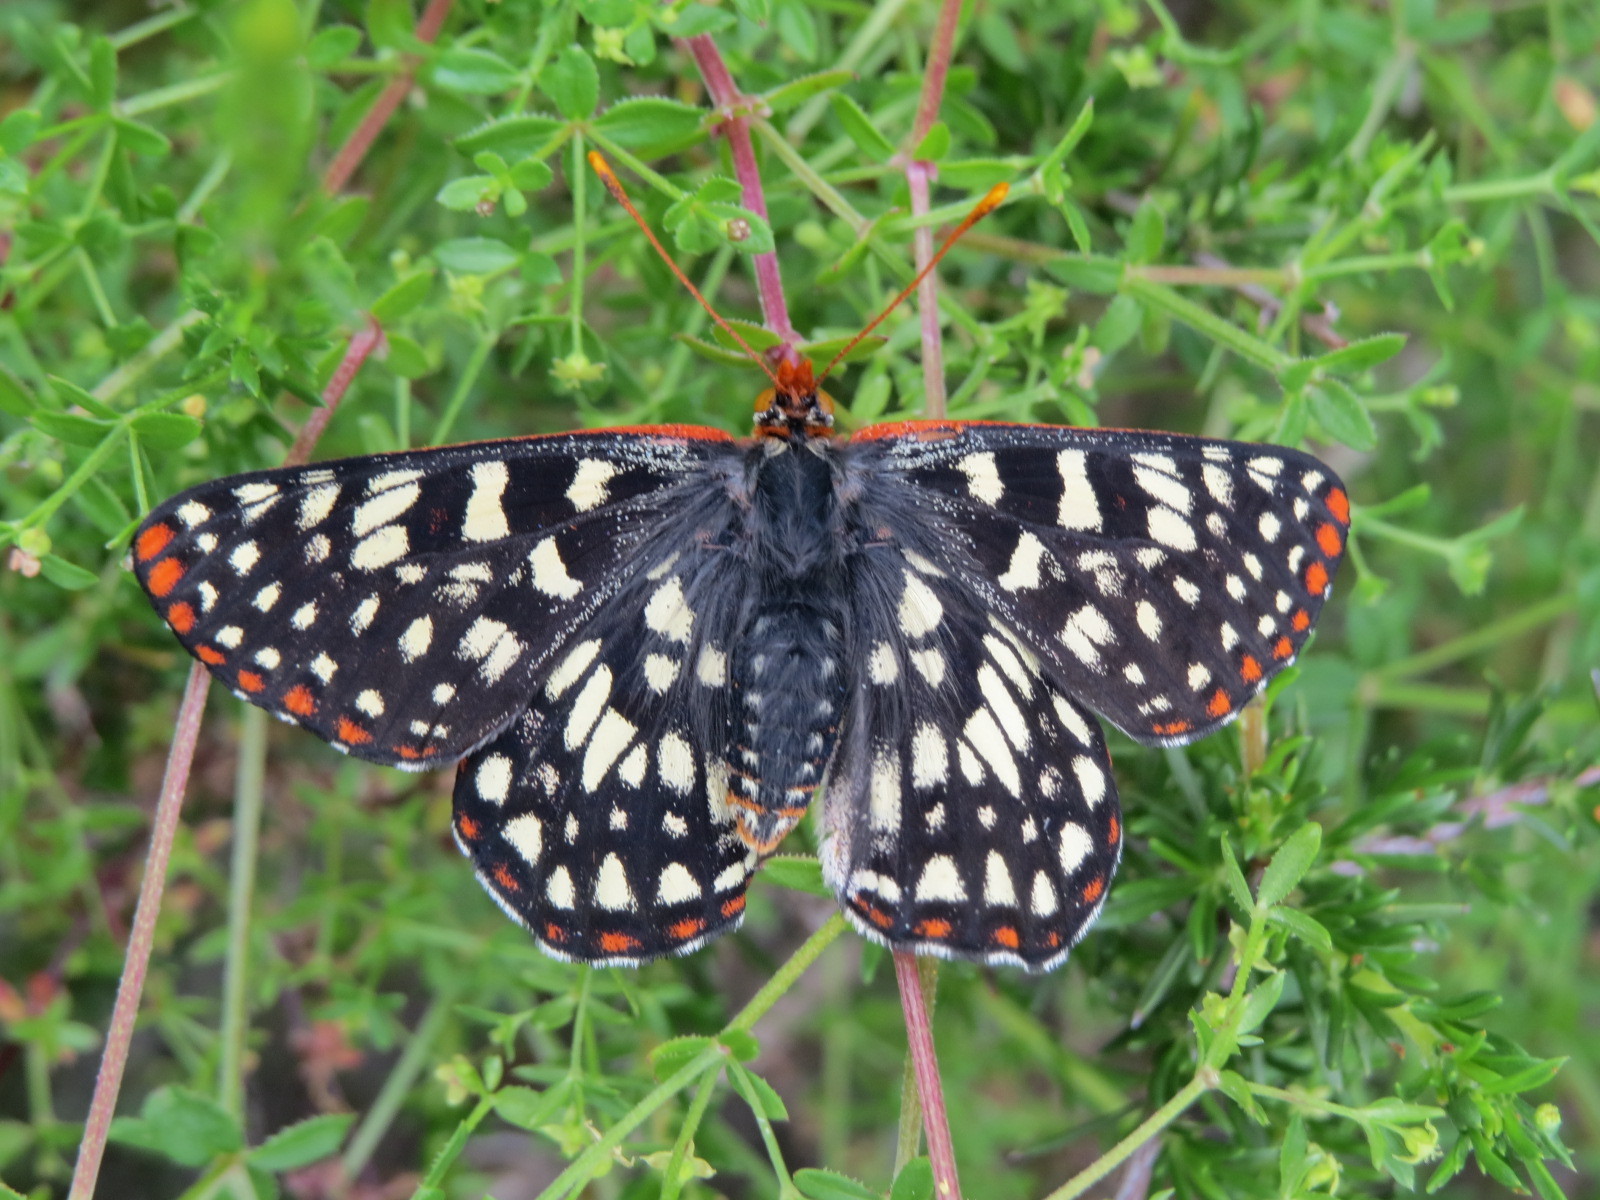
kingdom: Animalia
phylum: Arthropoda
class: Insecta
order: Lepidoptera
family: Nymphalidae
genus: Occidryas
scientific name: Occidryas chalcedona
